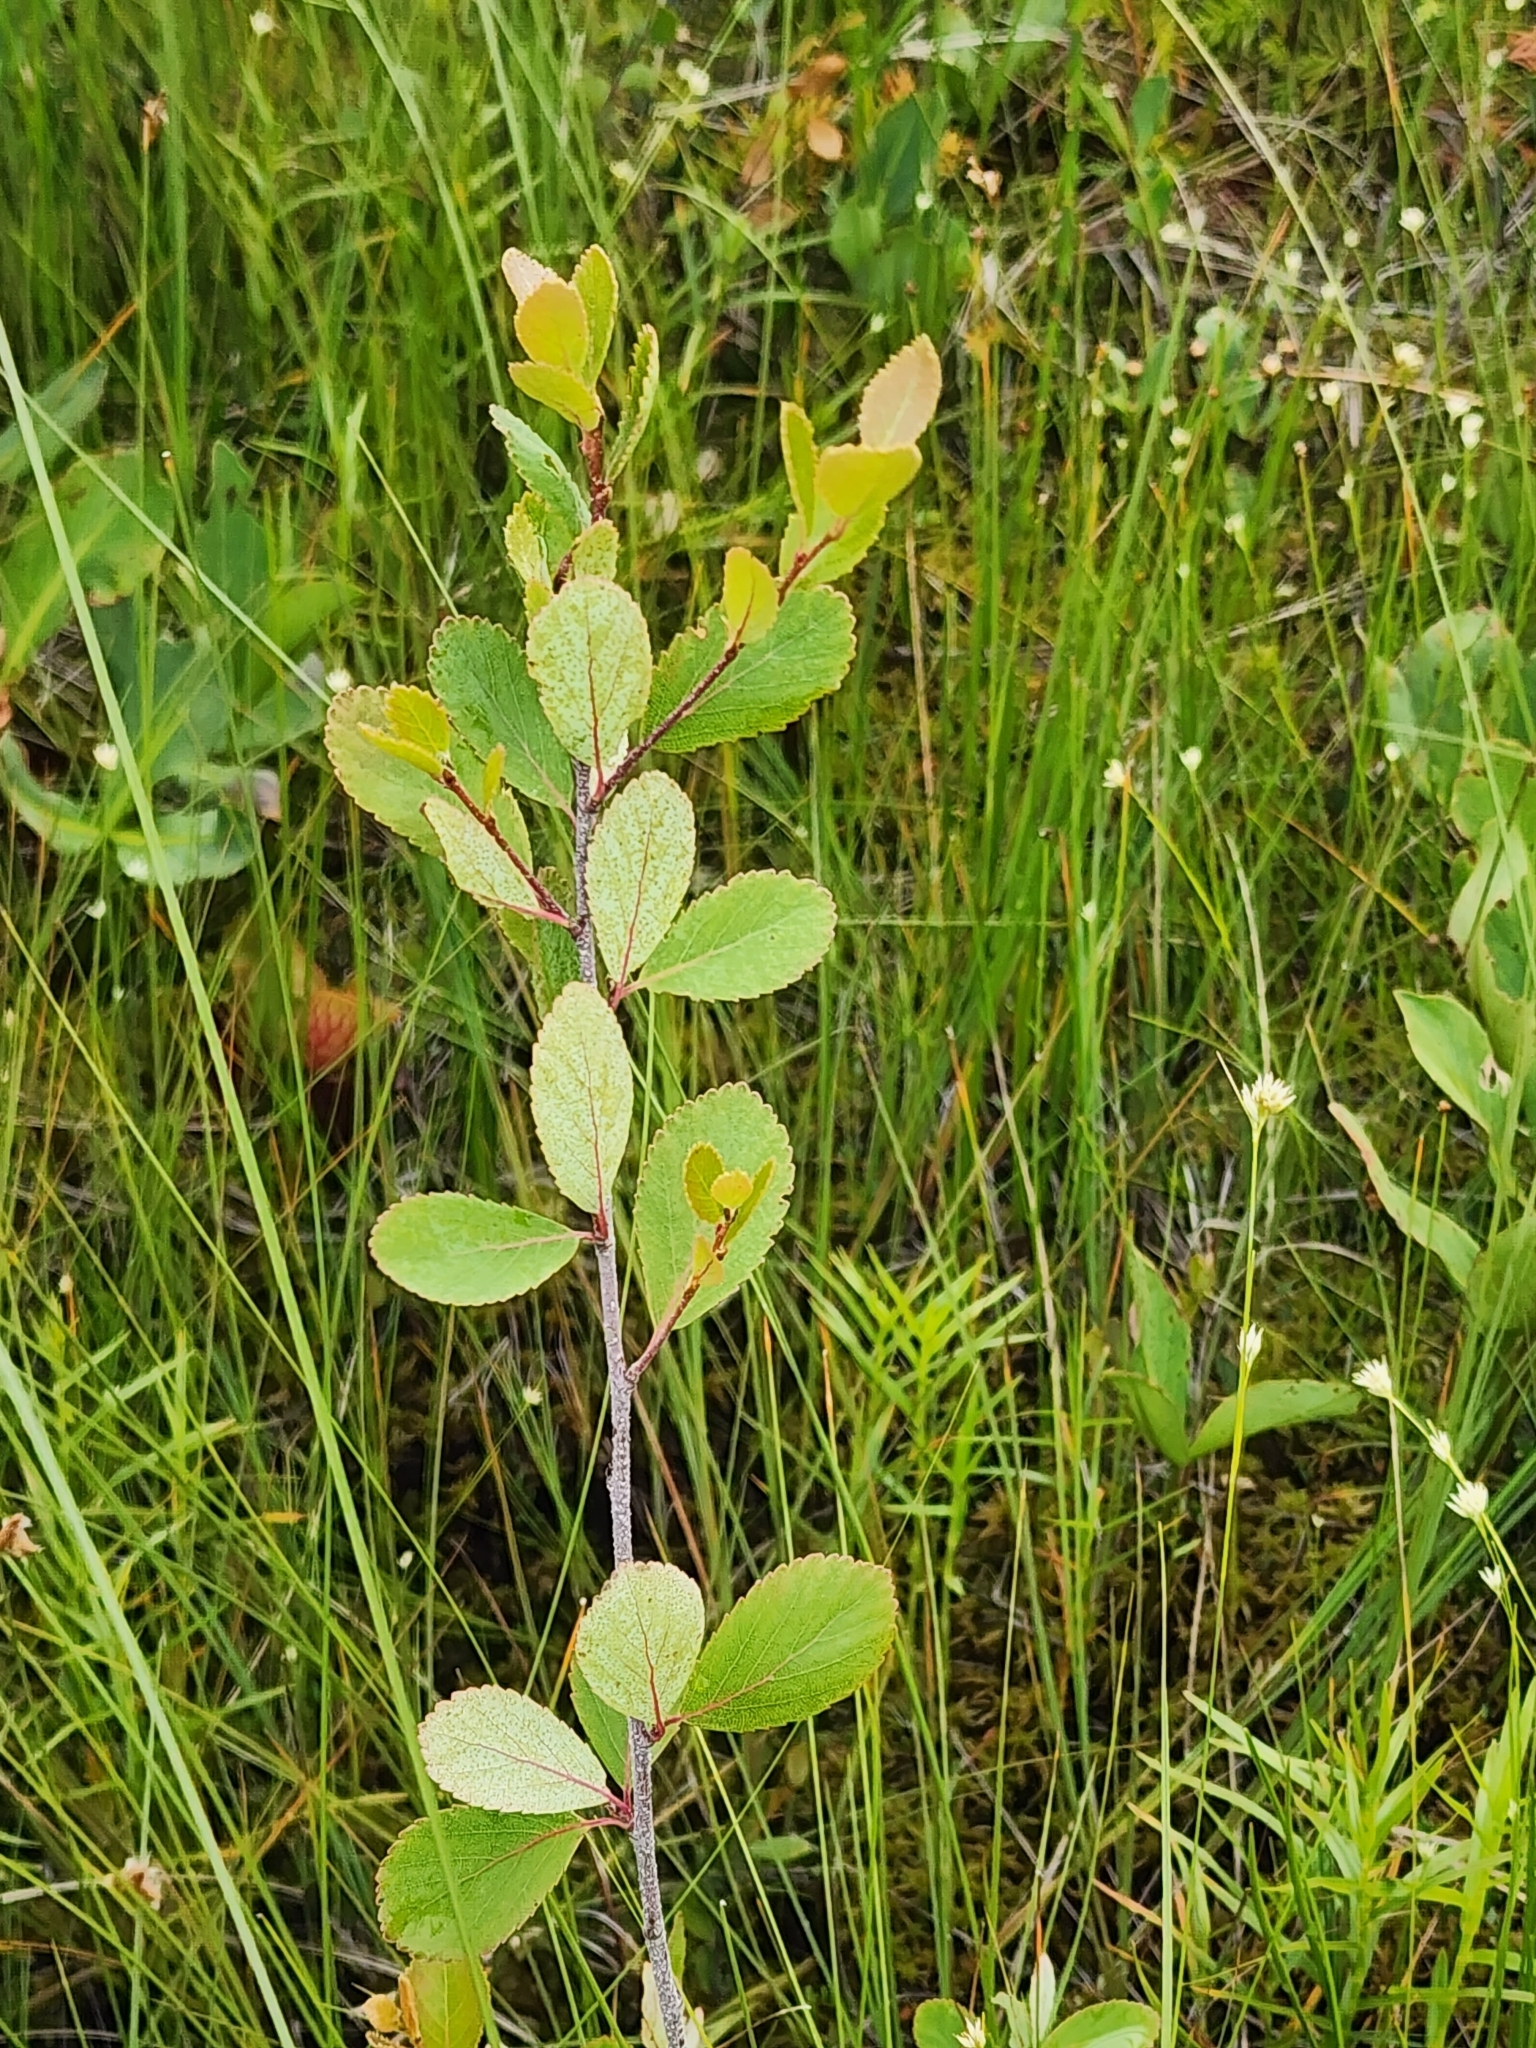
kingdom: Plantae
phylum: Tracheophyta
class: Magnoliopsida
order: Fagales
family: Betulaceae
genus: Betula
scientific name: Betula pumila
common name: Bog birch
